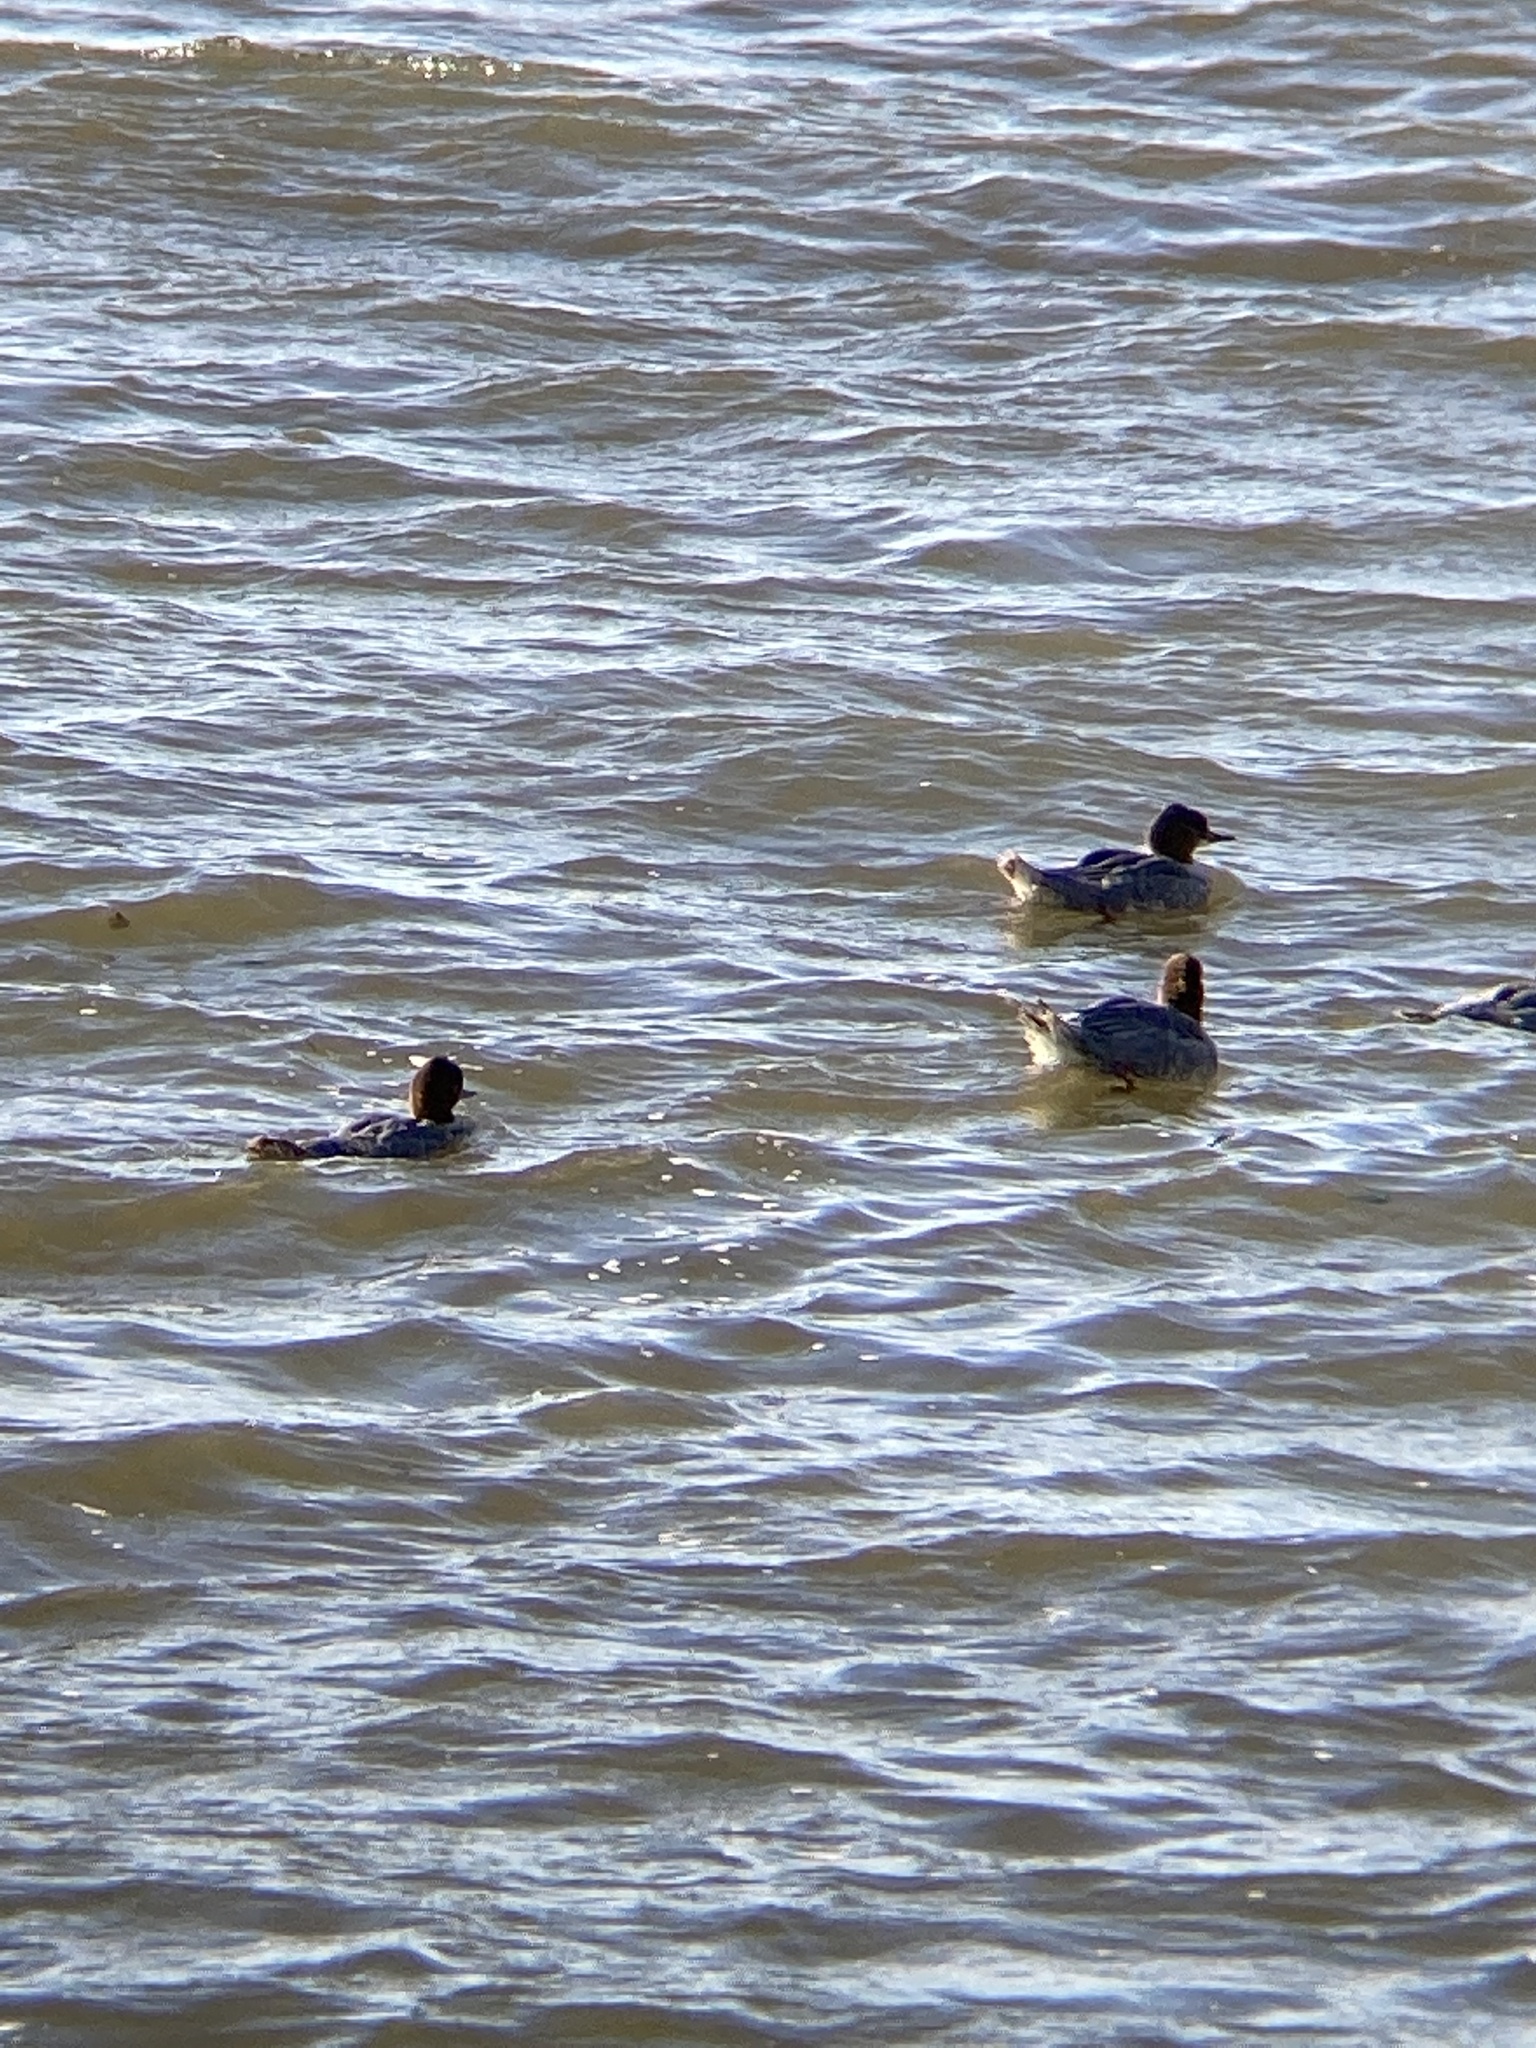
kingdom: Animalia
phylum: Chordata
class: Aves
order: Anseriformes
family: Anatidae
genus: Mergus
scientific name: Mergus merganser
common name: Common merganser
